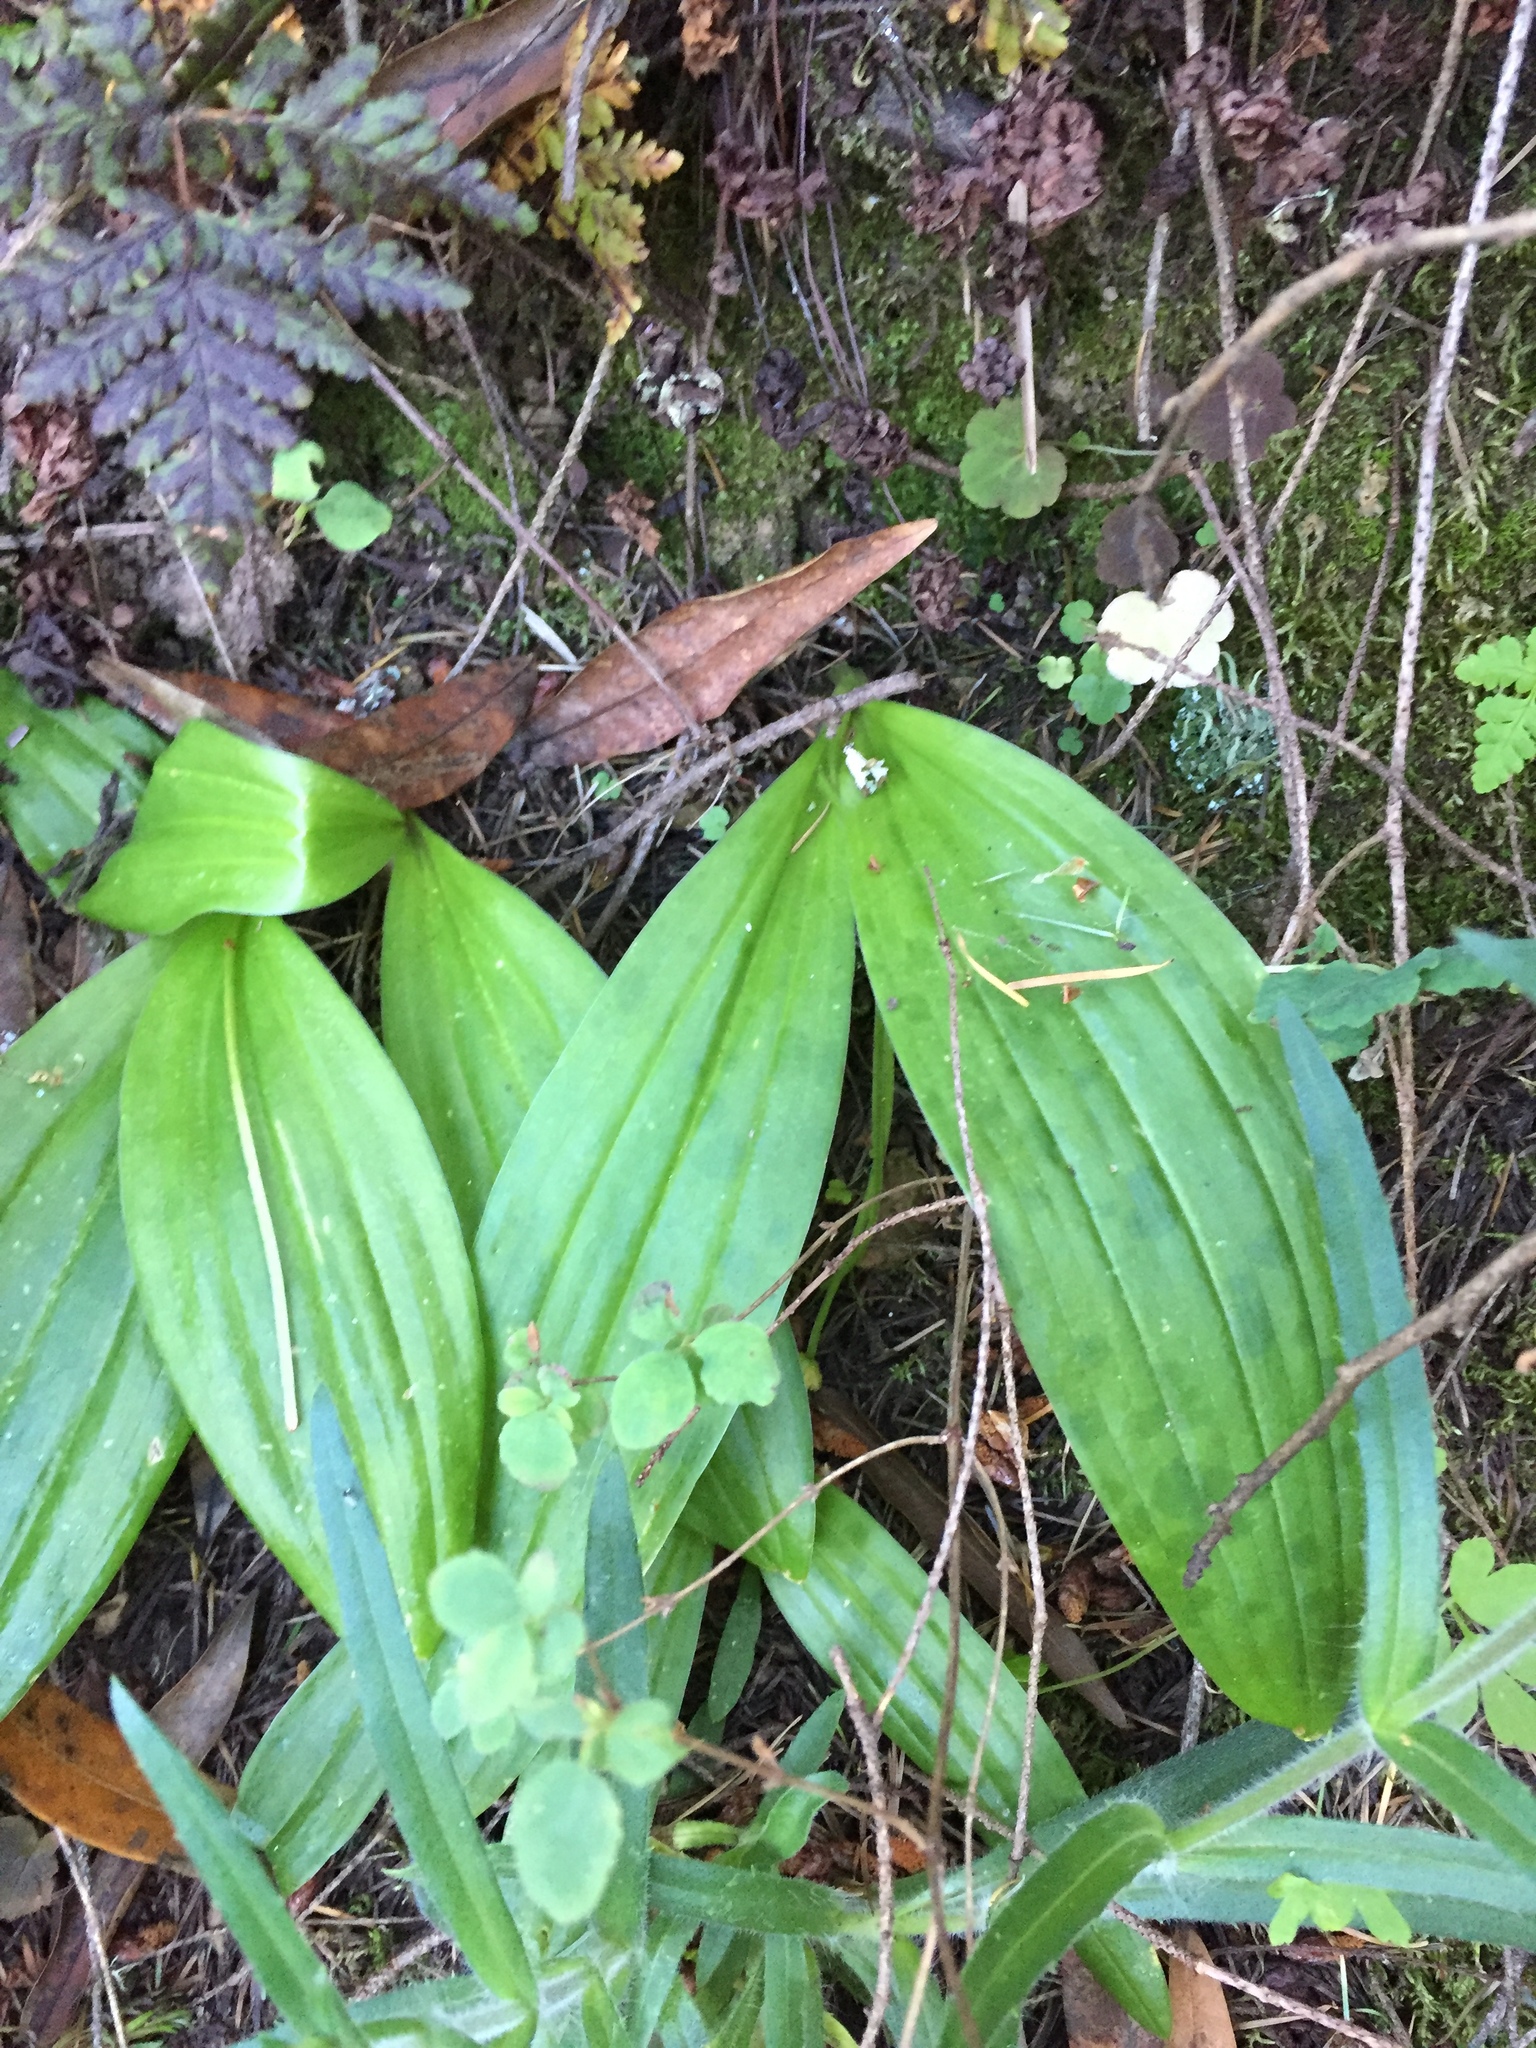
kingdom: Plantae
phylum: Tracheophyta
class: Liliopsida
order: Liliales
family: Liliaceae
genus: Scoliopus
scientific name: Scoliopus bigelovii
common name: Foetid adder's-tongue
